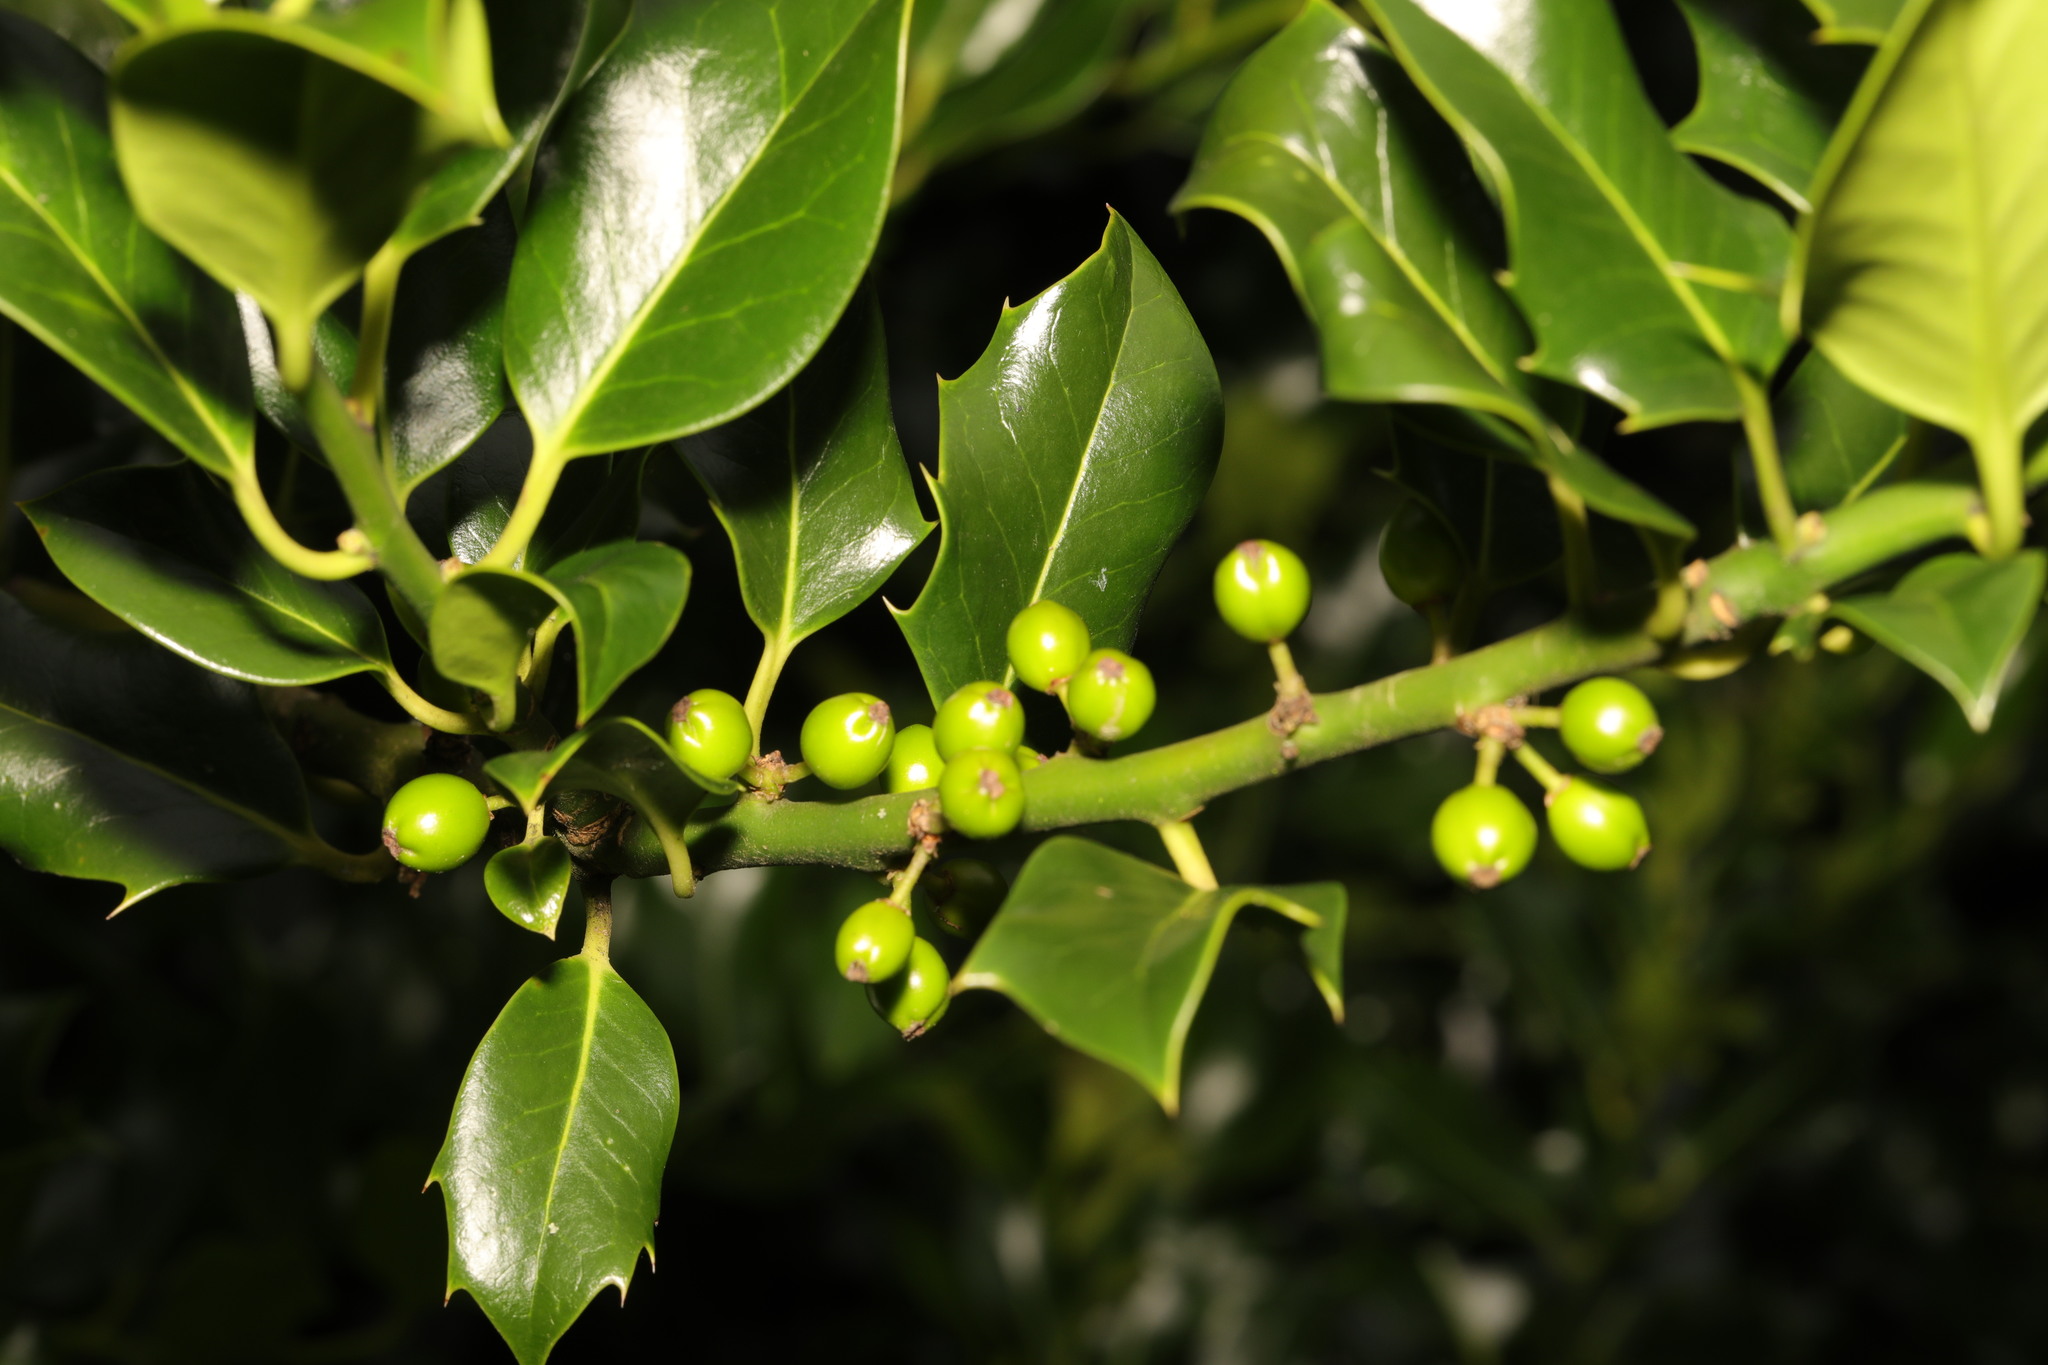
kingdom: Plantae
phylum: Tracheophyta
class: Magnoliopsida
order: Aquifoliales
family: Aquifoliaceae
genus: Ilex
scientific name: Ilex aquifolium
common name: English holly
